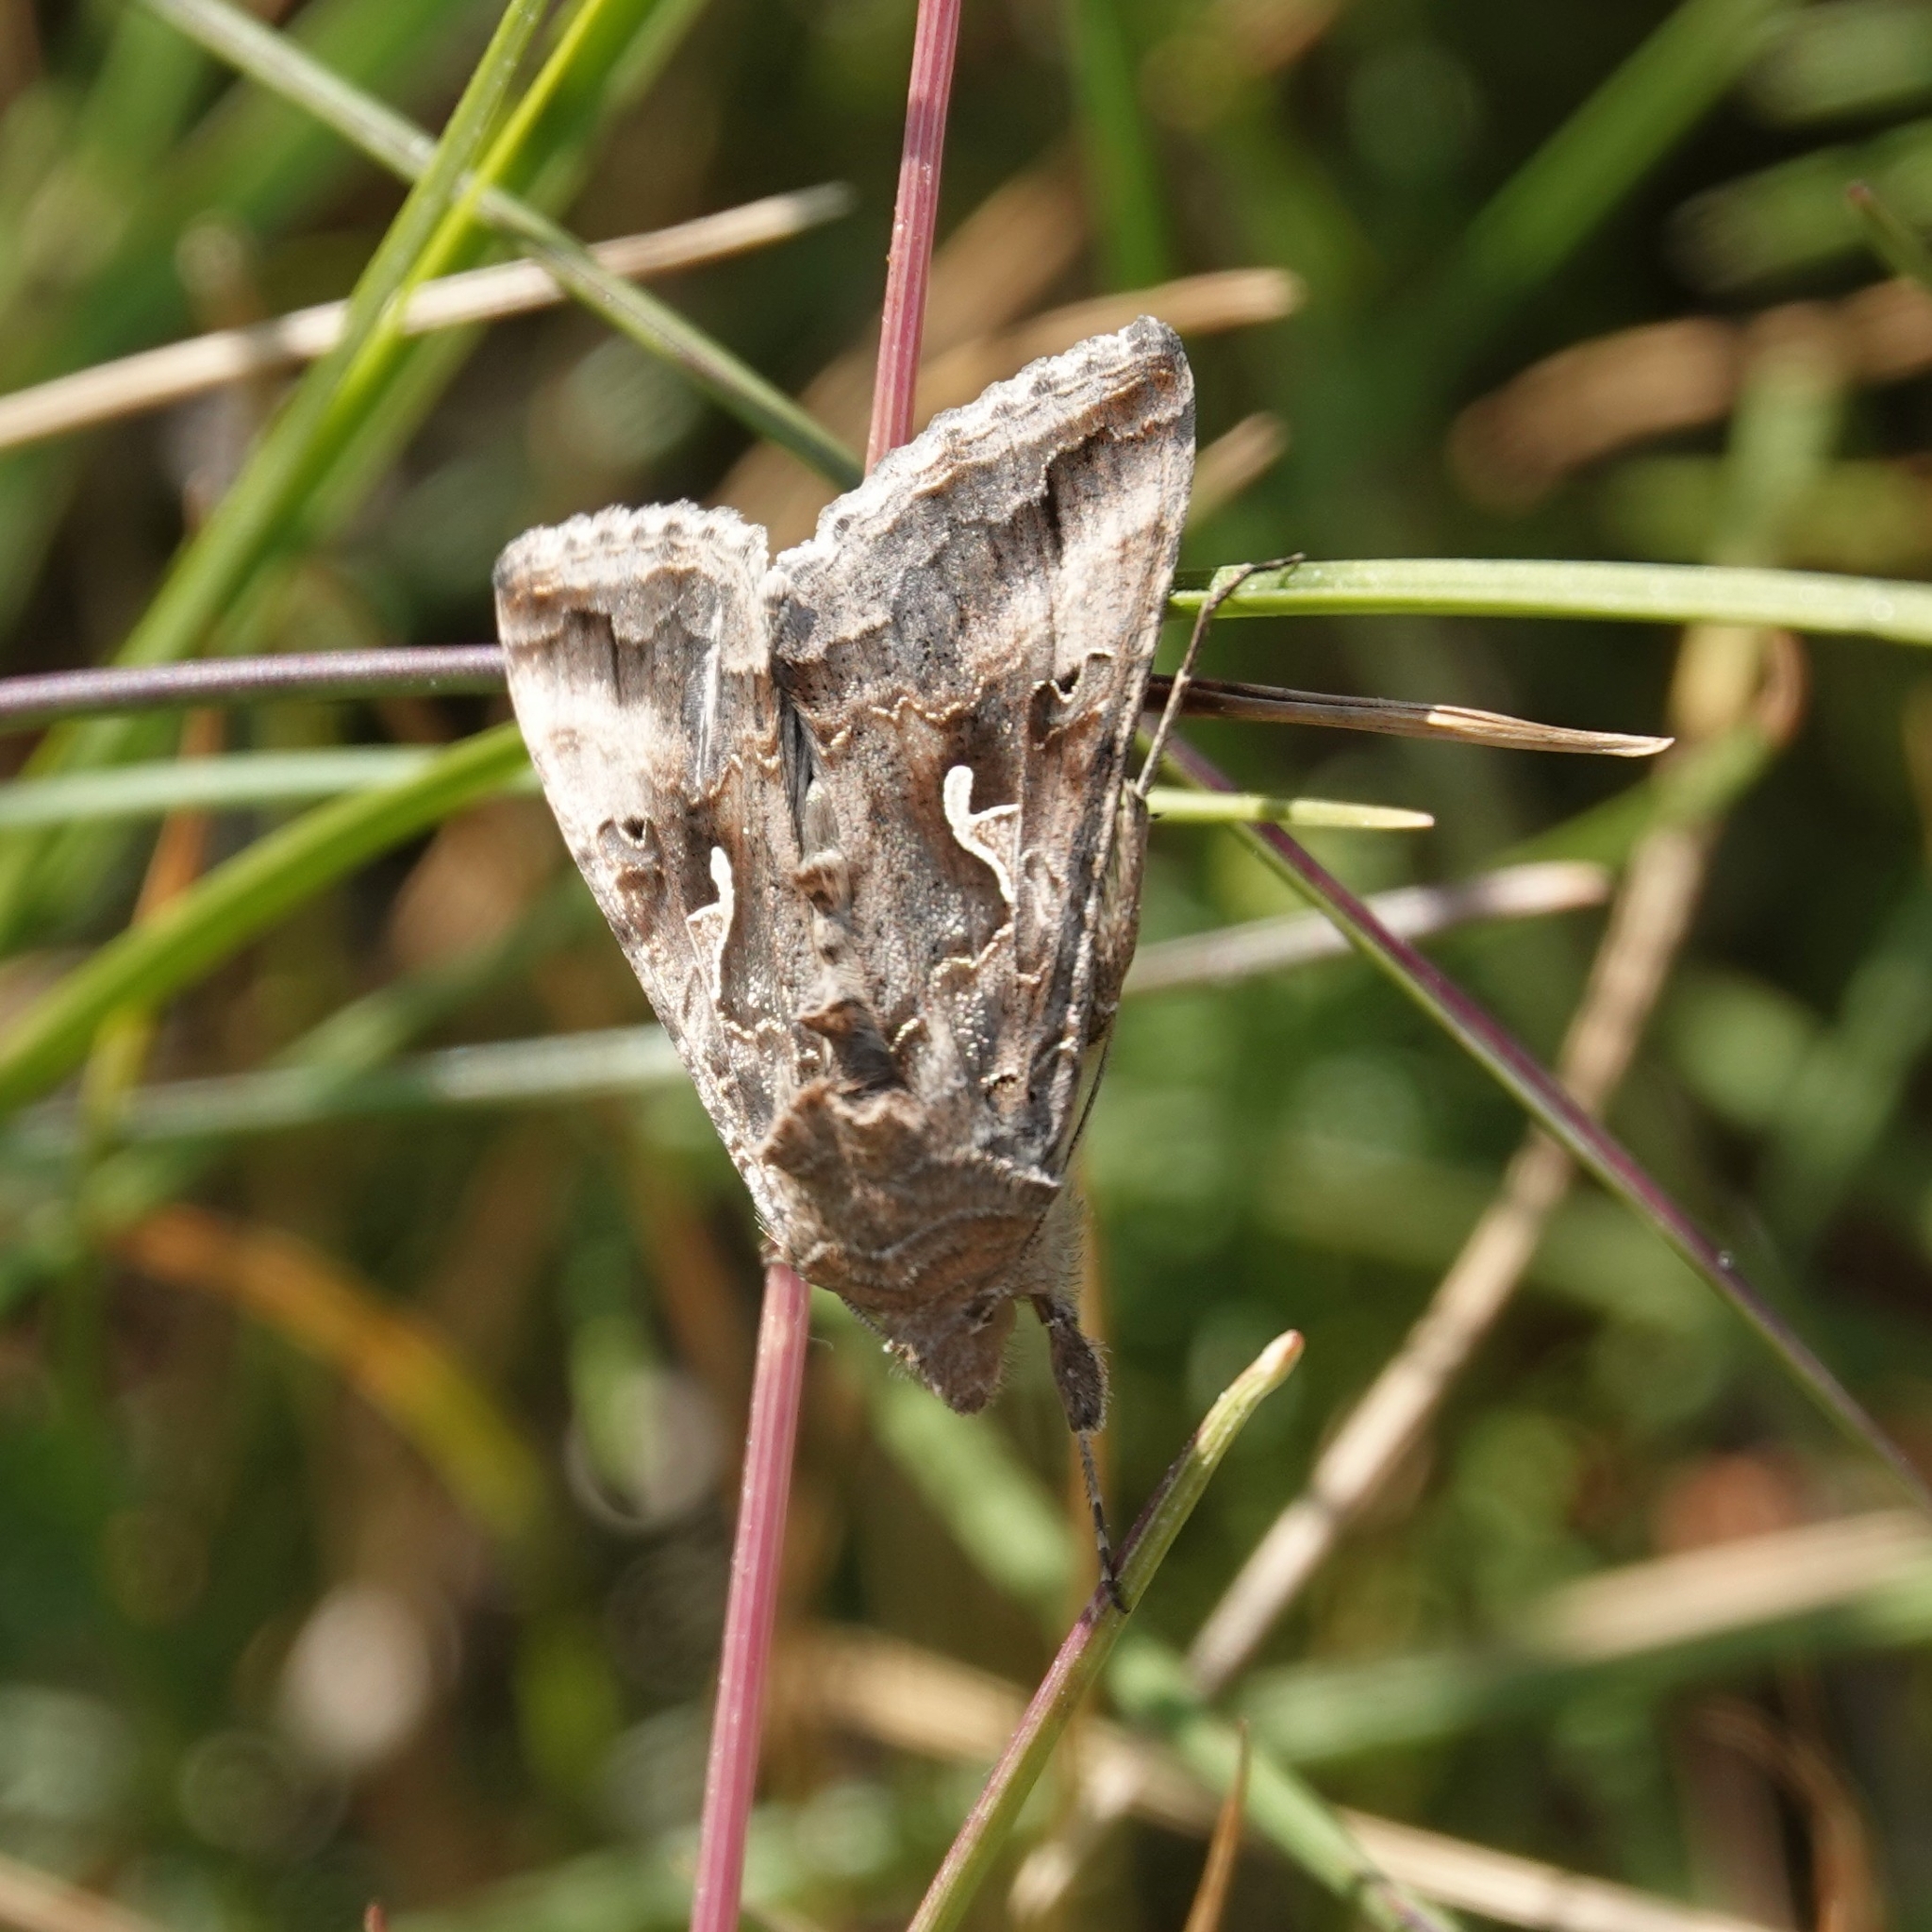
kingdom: Animalia
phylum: Arthropoda
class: Insecta
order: Lepidoptera
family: Noctuidae
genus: Autographa
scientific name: Autographa gamma
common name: Silver y
